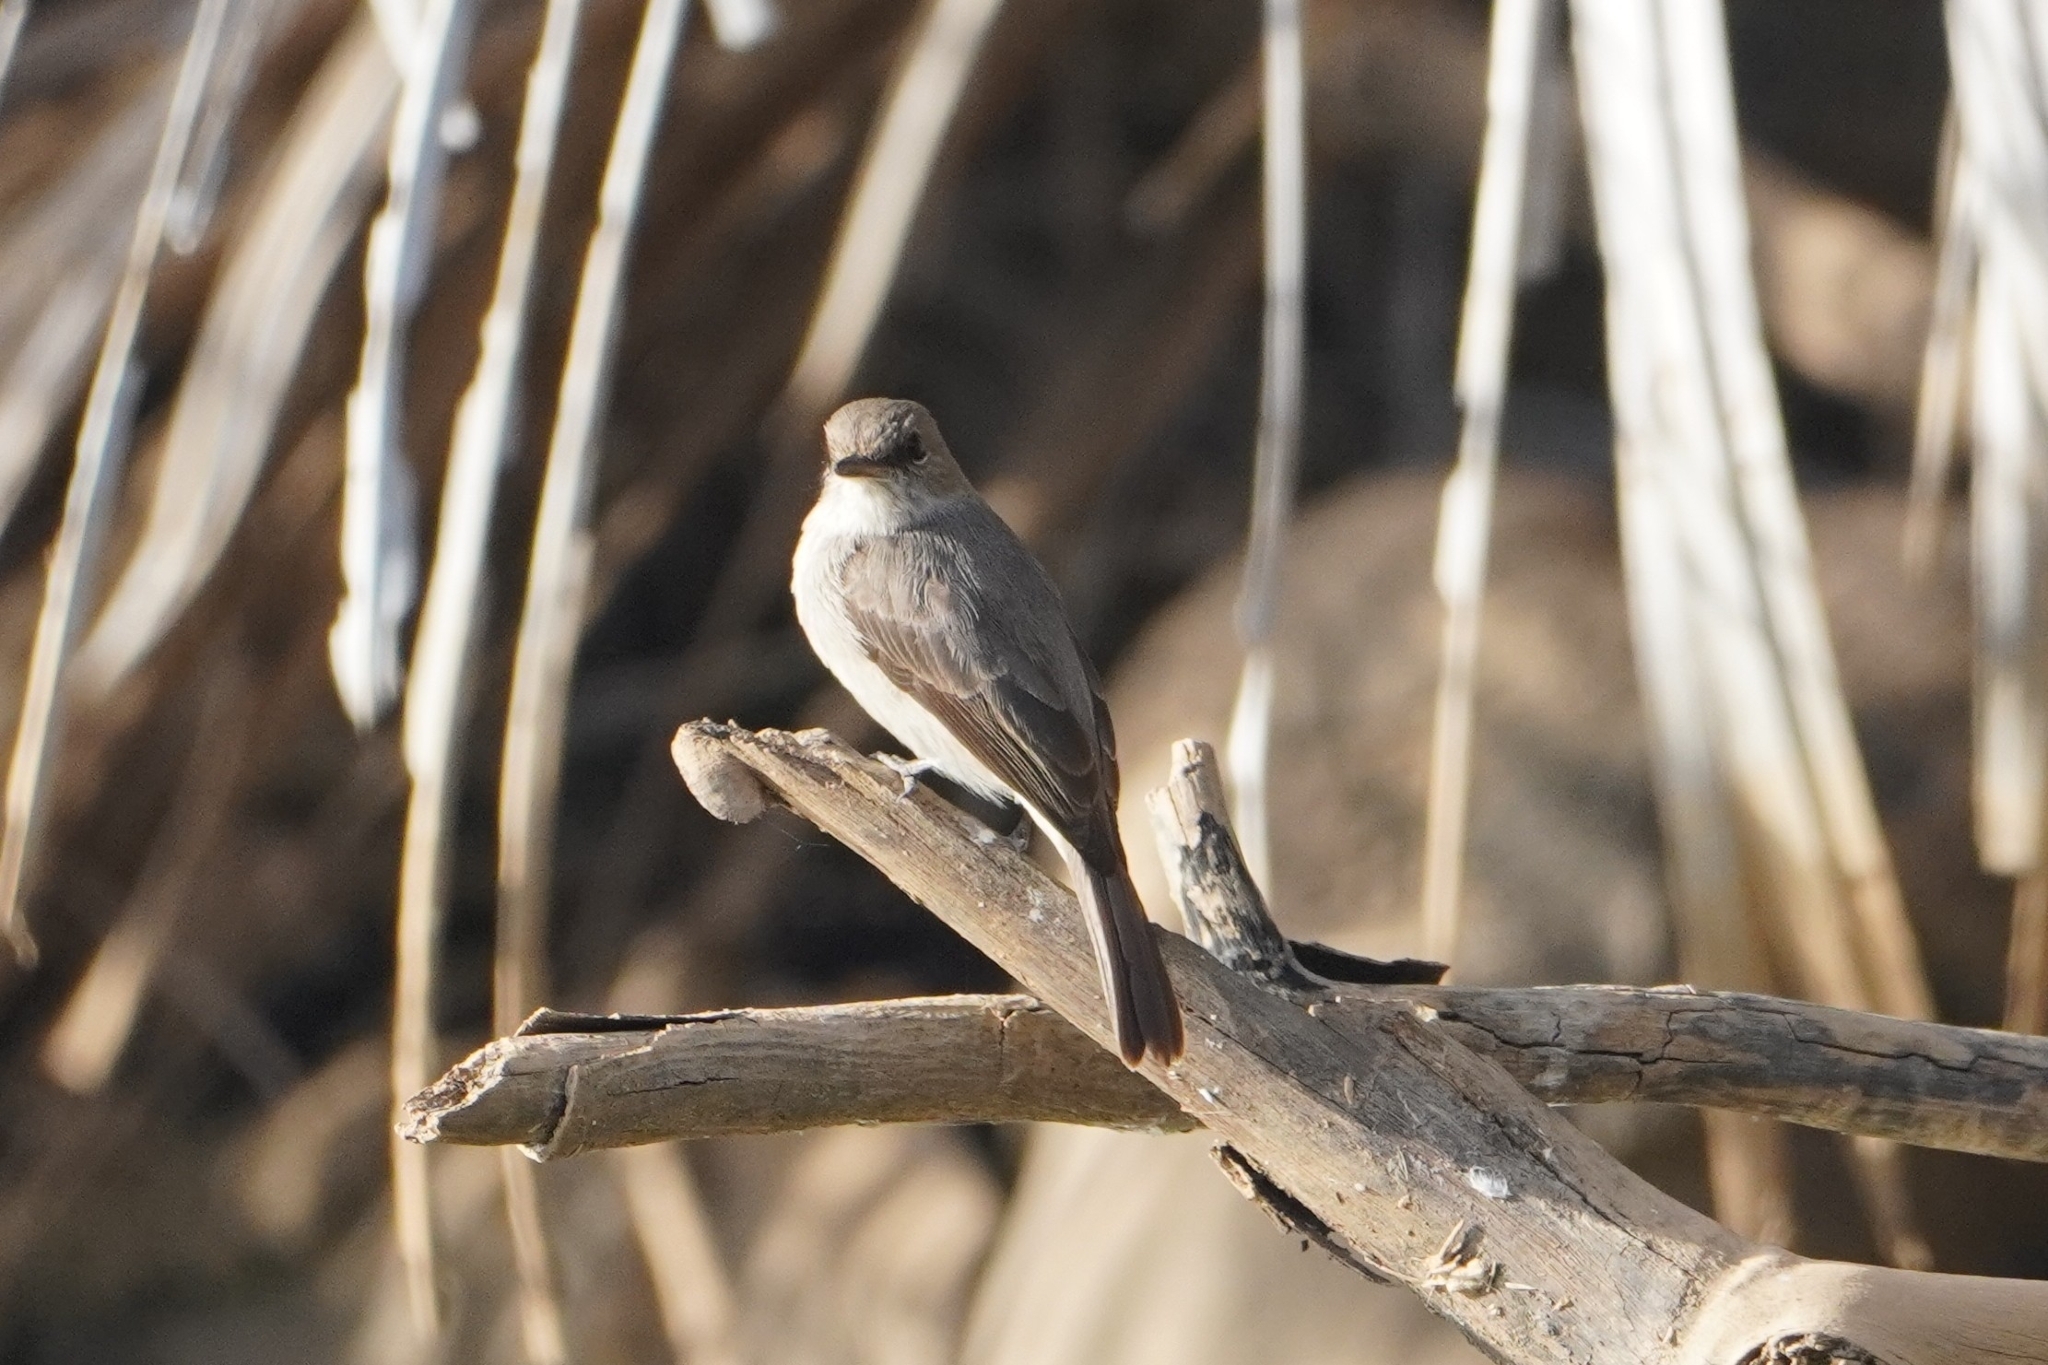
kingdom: Animalia
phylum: Chordata
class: Aves
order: Passeriformes
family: Muscicapidae
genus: Muscicapa
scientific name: Muscicapa aquatica
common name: Swamp flycatcher
